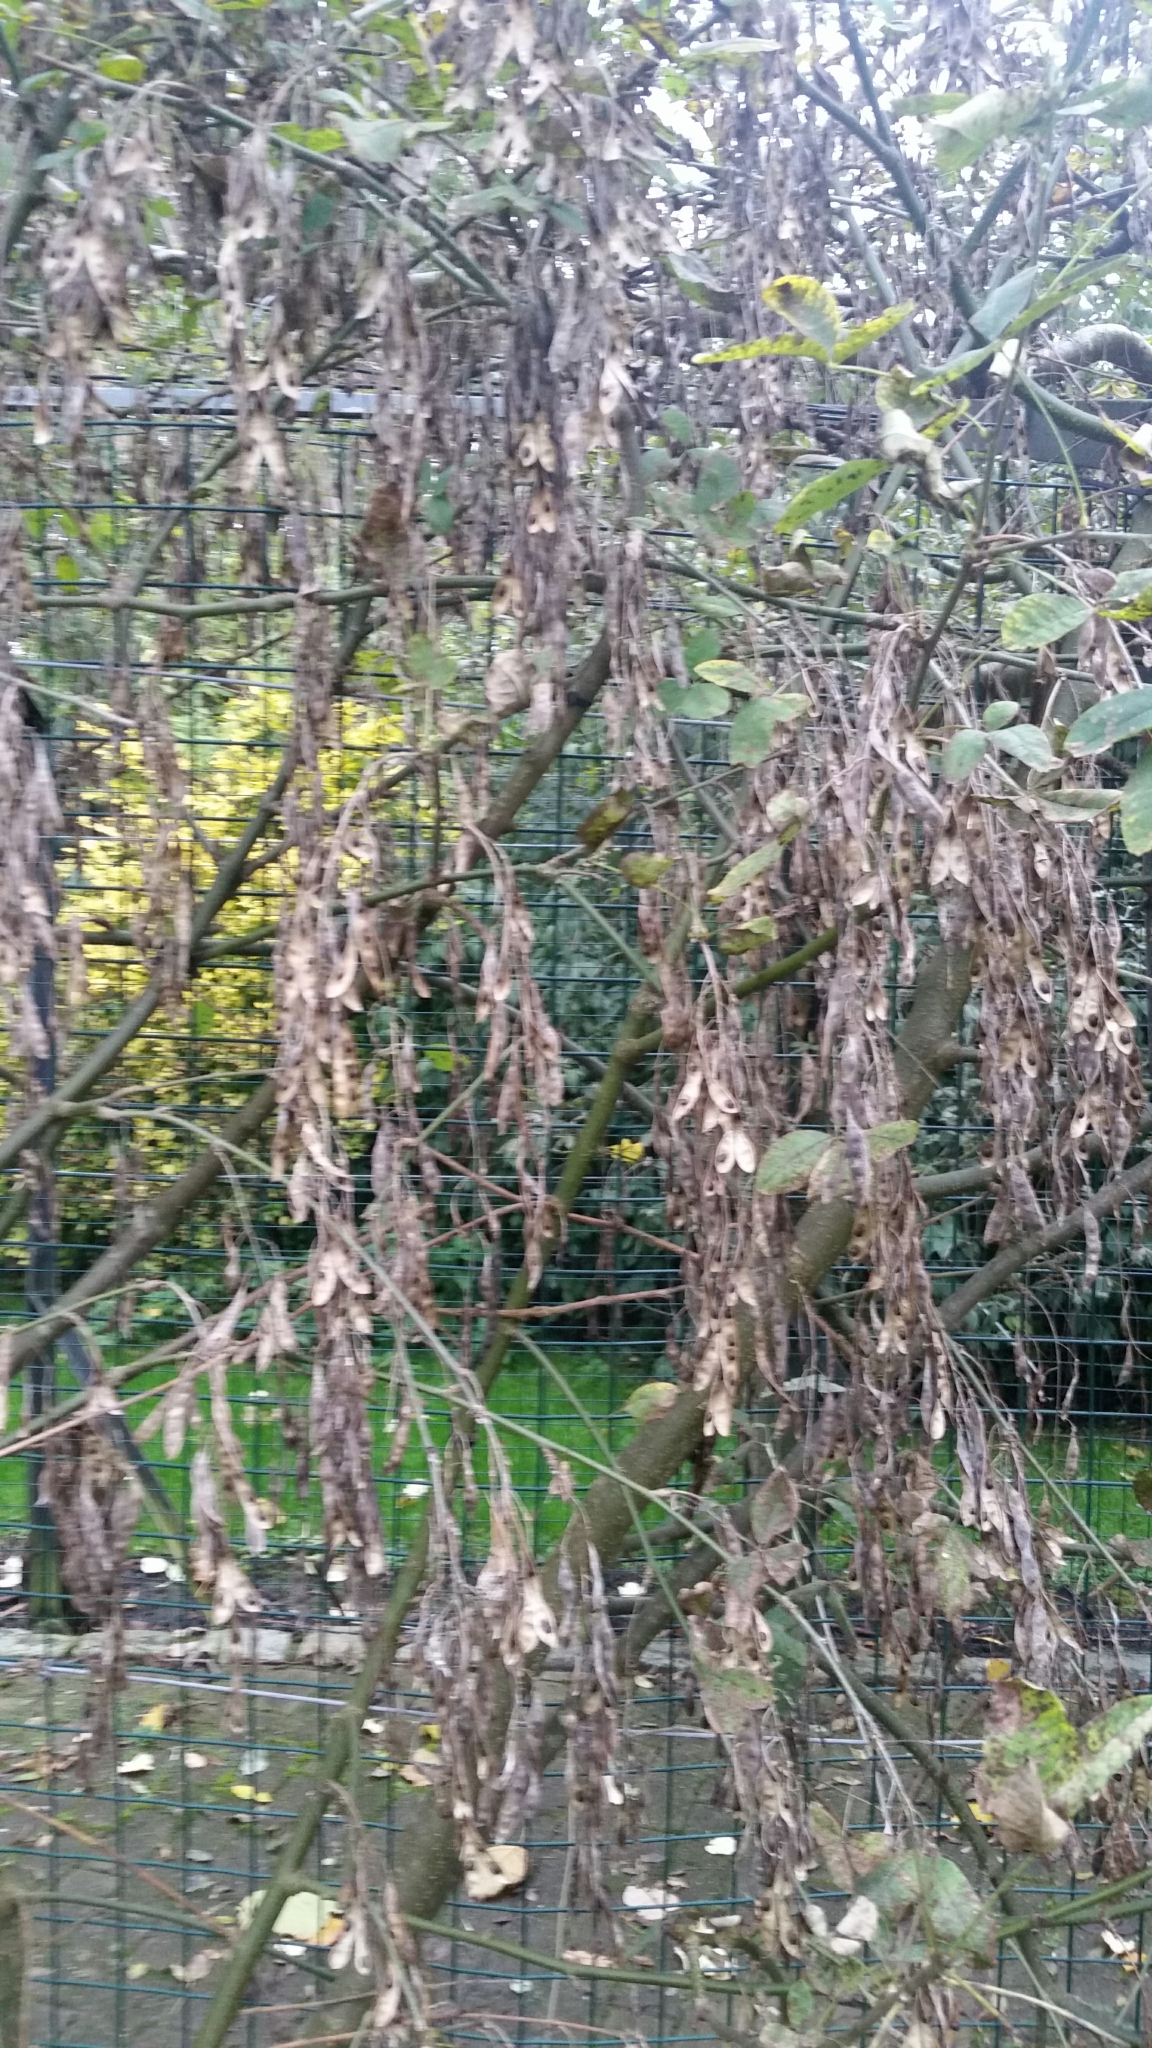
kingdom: Plantae
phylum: Tracheophyta
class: Magnoliopsida
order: Fabales
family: Fabaceae
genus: Laburnum
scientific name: Laburnum anagyroides
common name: Laburnum
